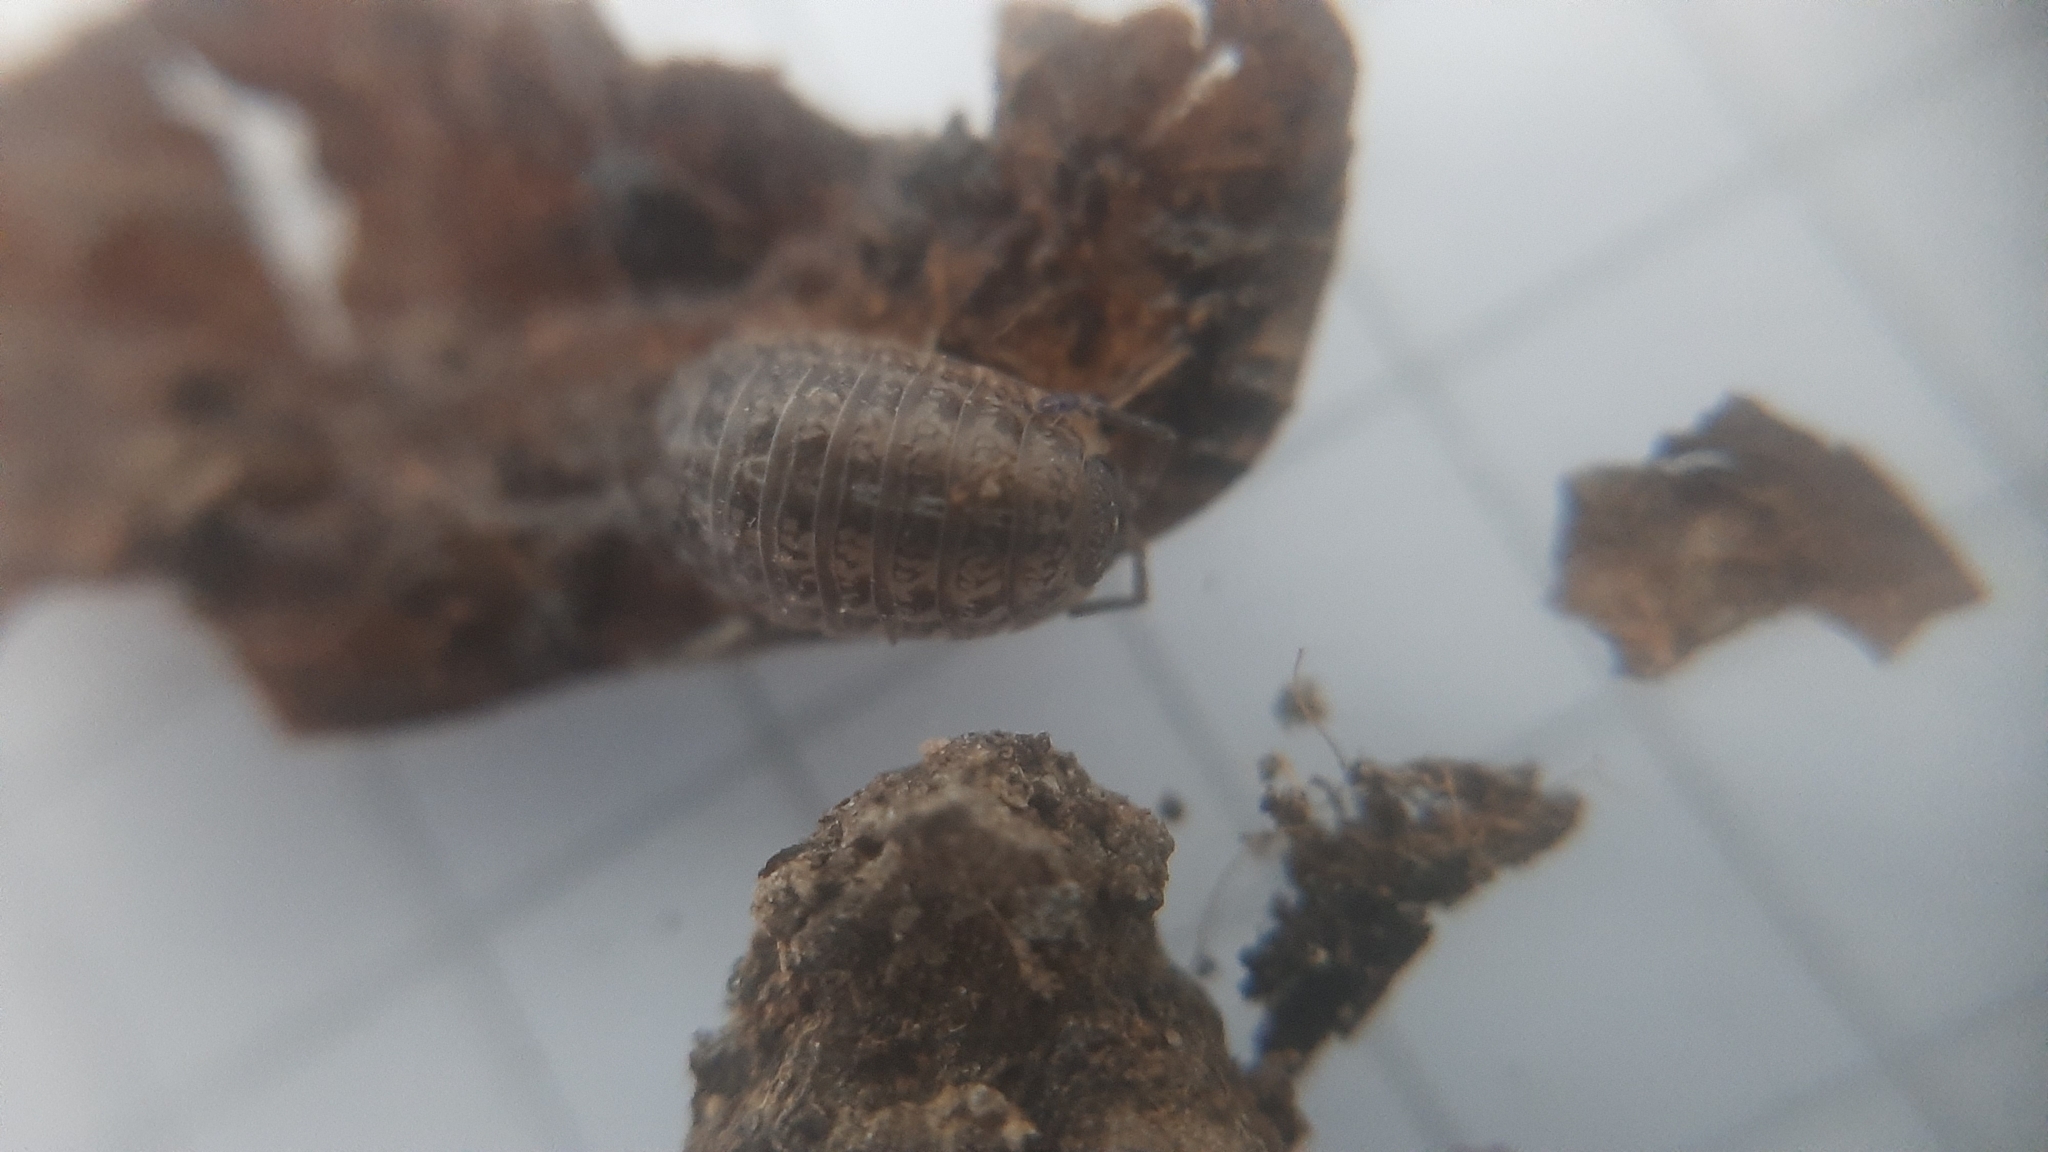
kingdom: Animalia
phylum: Arthropoda
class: Malacostraca
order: Isopoda
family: Trachelipodidae
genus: Trachelipus
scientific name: Trachelipus razzautii
